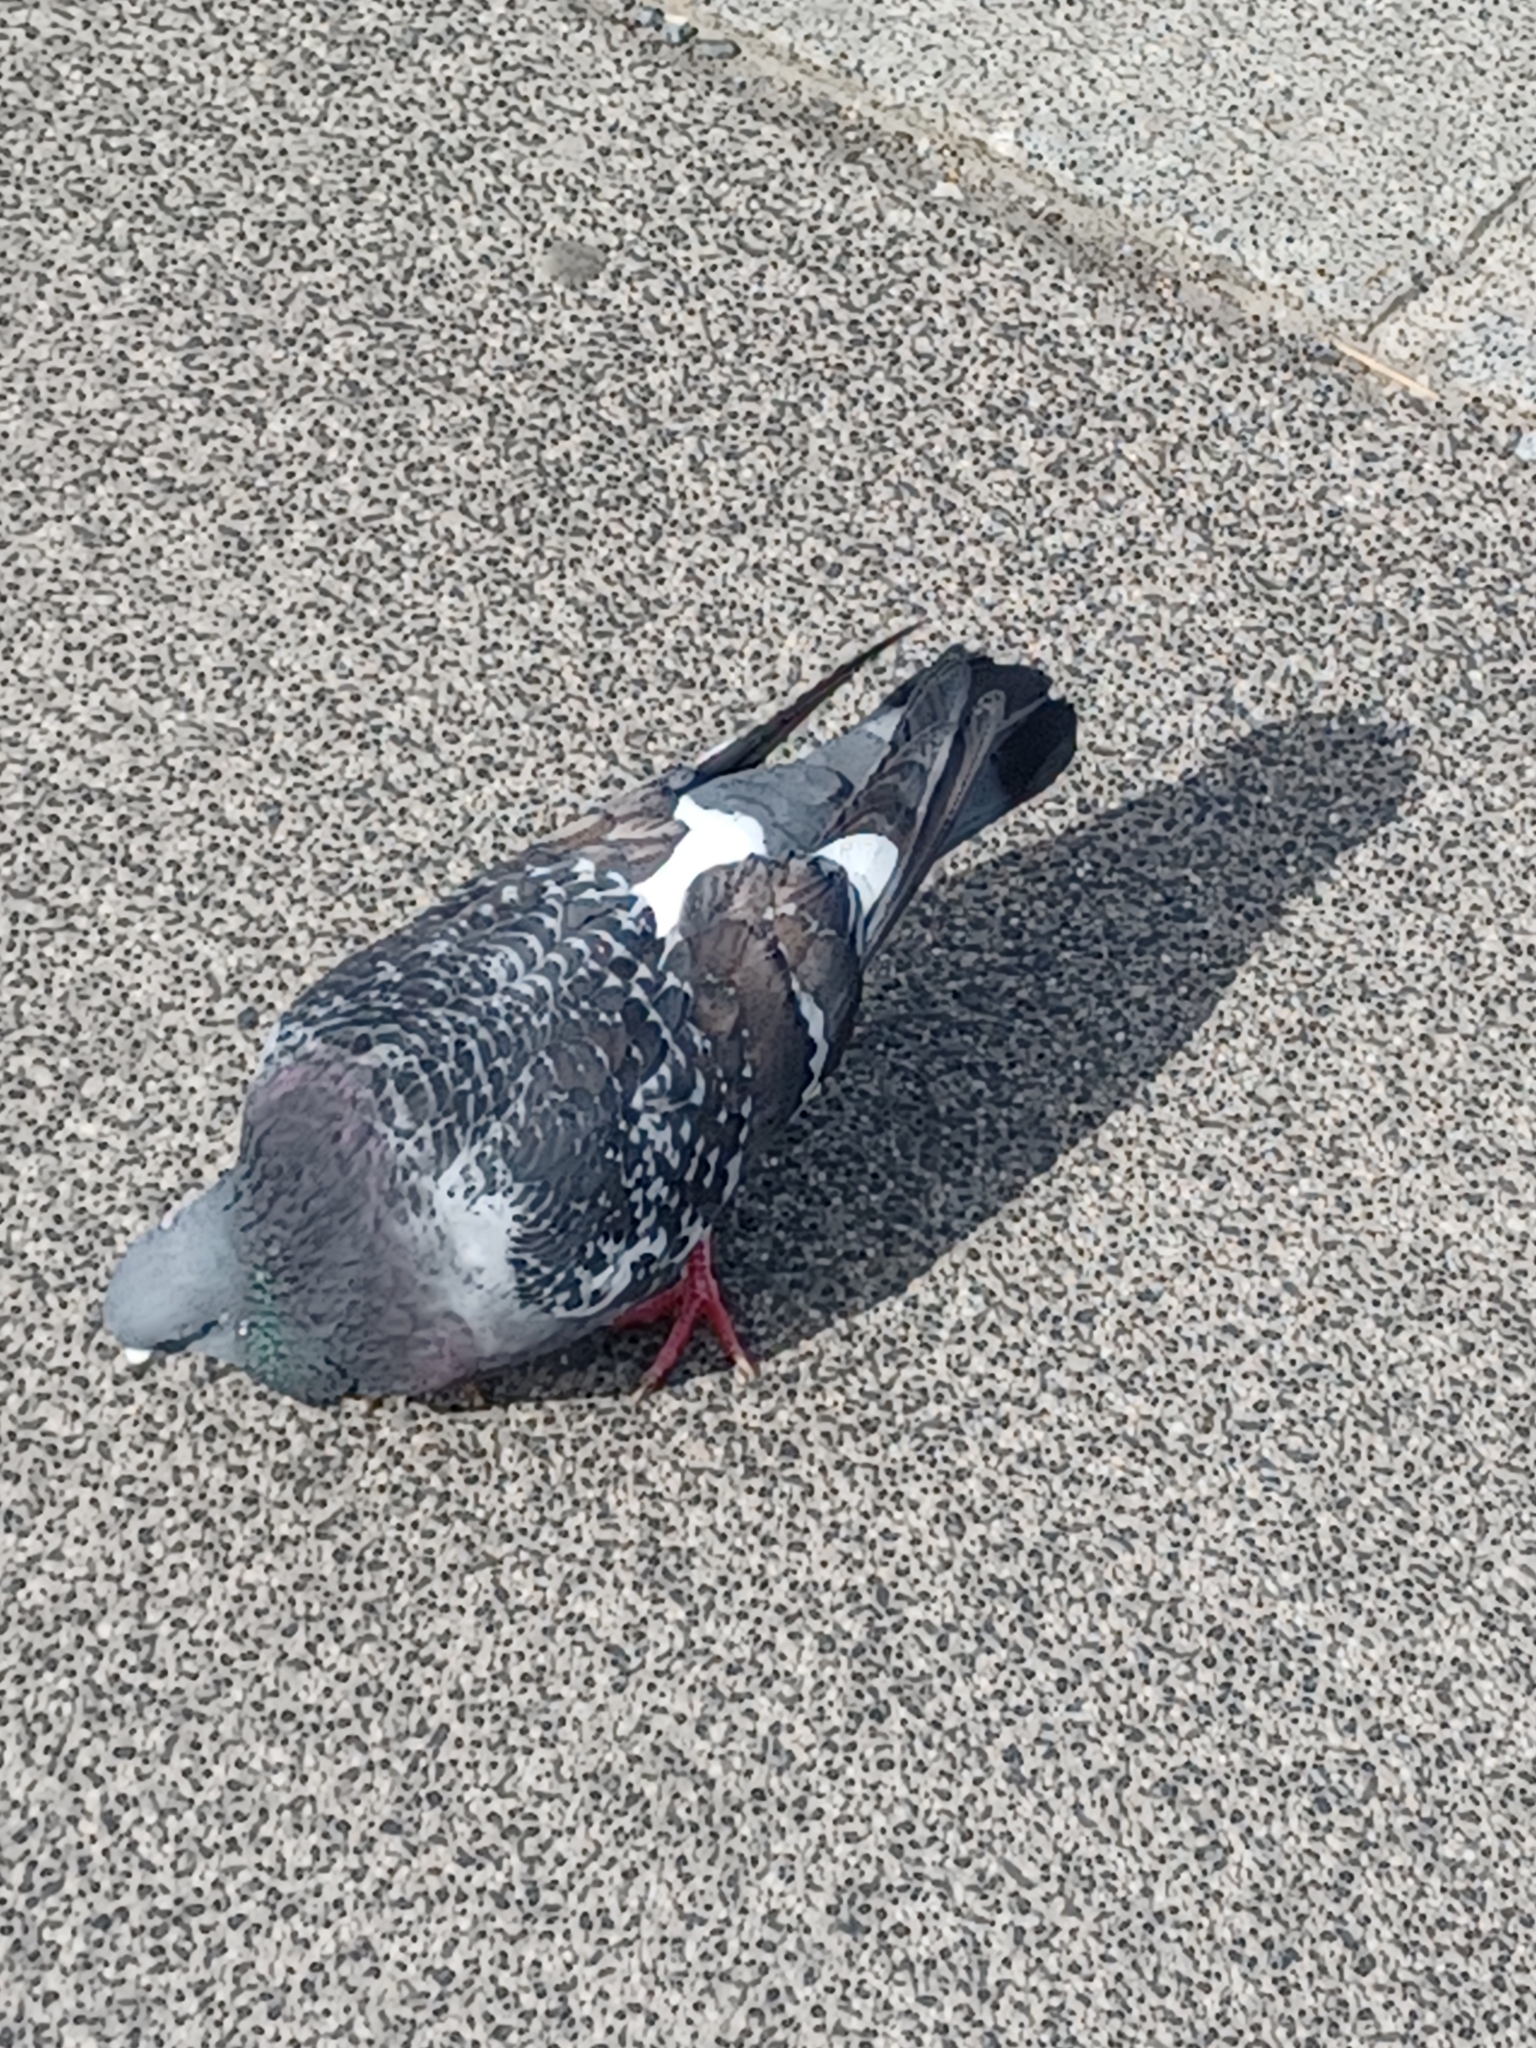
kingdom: Animalia
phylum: Chordata
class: Aves
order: Columbiformes
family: Columbidae
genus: Columba
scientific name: Columba livia
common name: Rock pigeon
